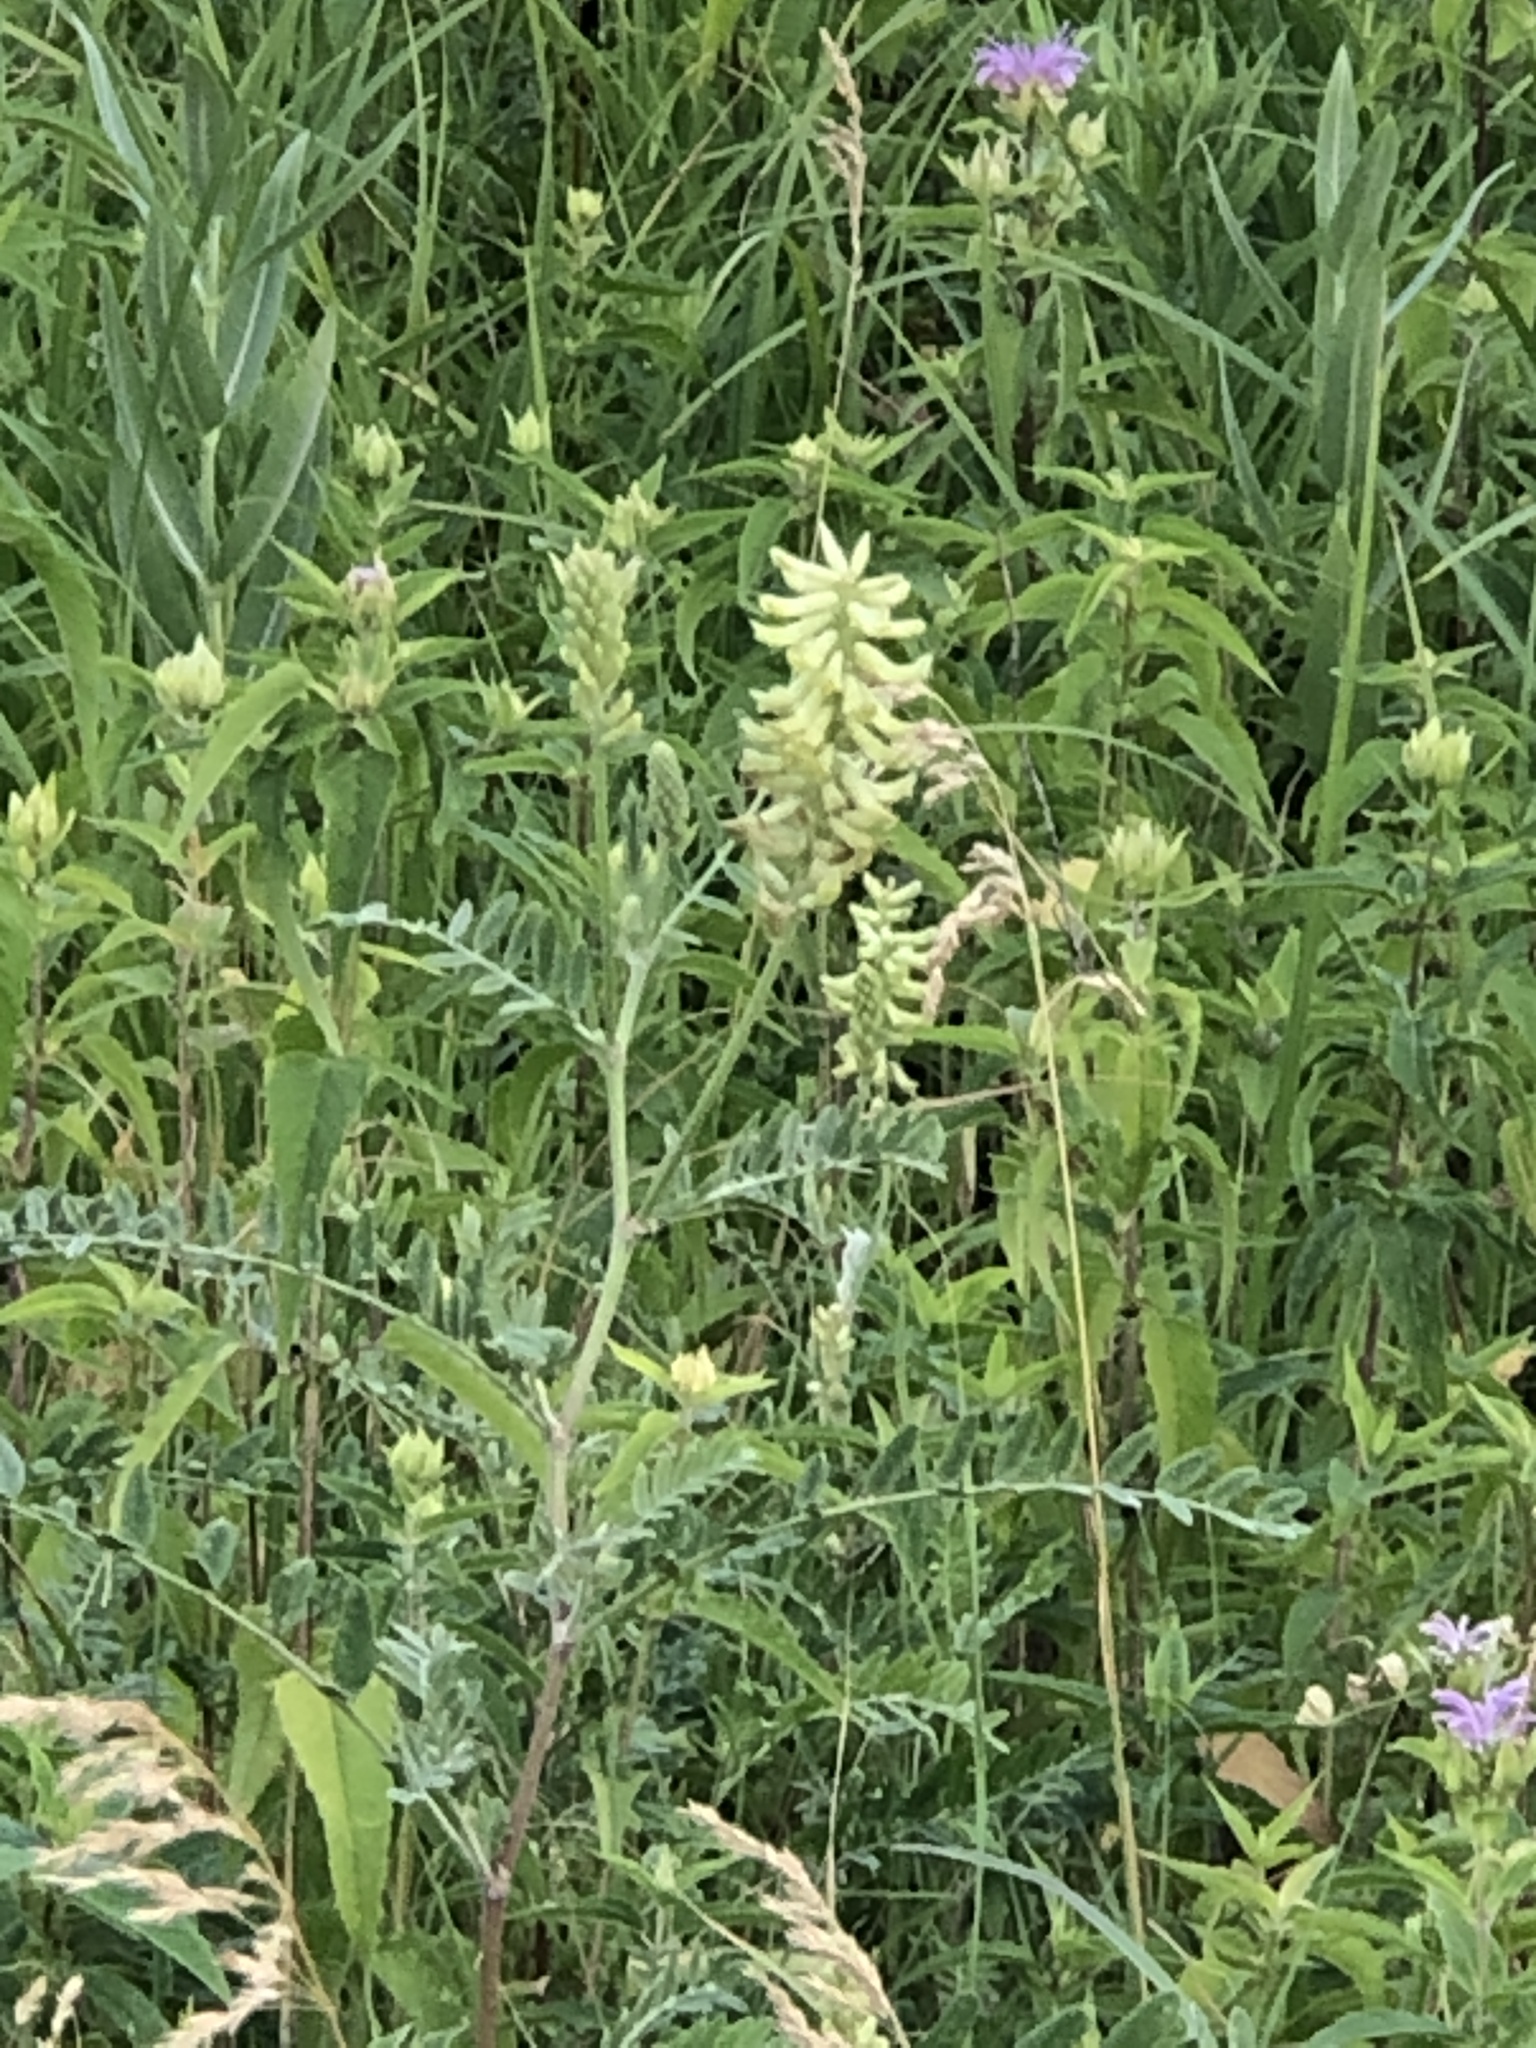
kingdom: Plantae
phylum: Tracheophyta
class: Magnoliopsida
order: Fabales
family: Fabaceae
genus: Astragalus
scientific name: Astragalus canadensis
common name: Canada milk-vetch
